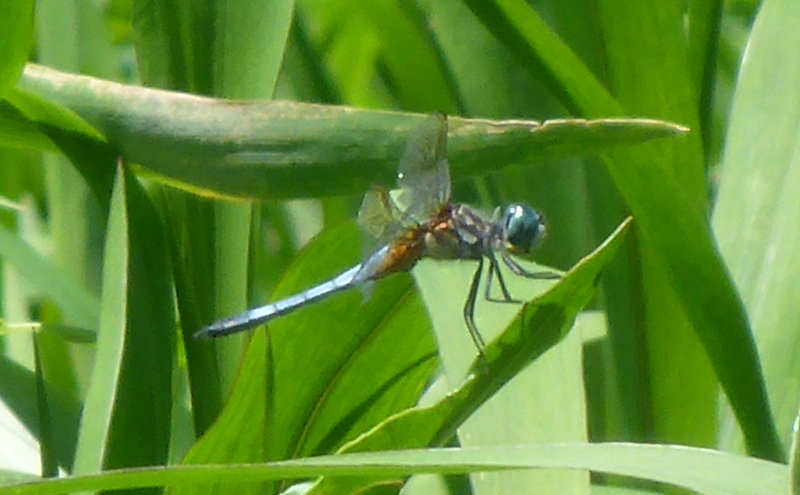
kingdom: Animalia
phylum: Arthropoda
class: Insecta
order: Odonata
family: Libellulidae
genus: Pachydiplax
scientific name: Pachydiplax longipennis
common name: Blue dasher
